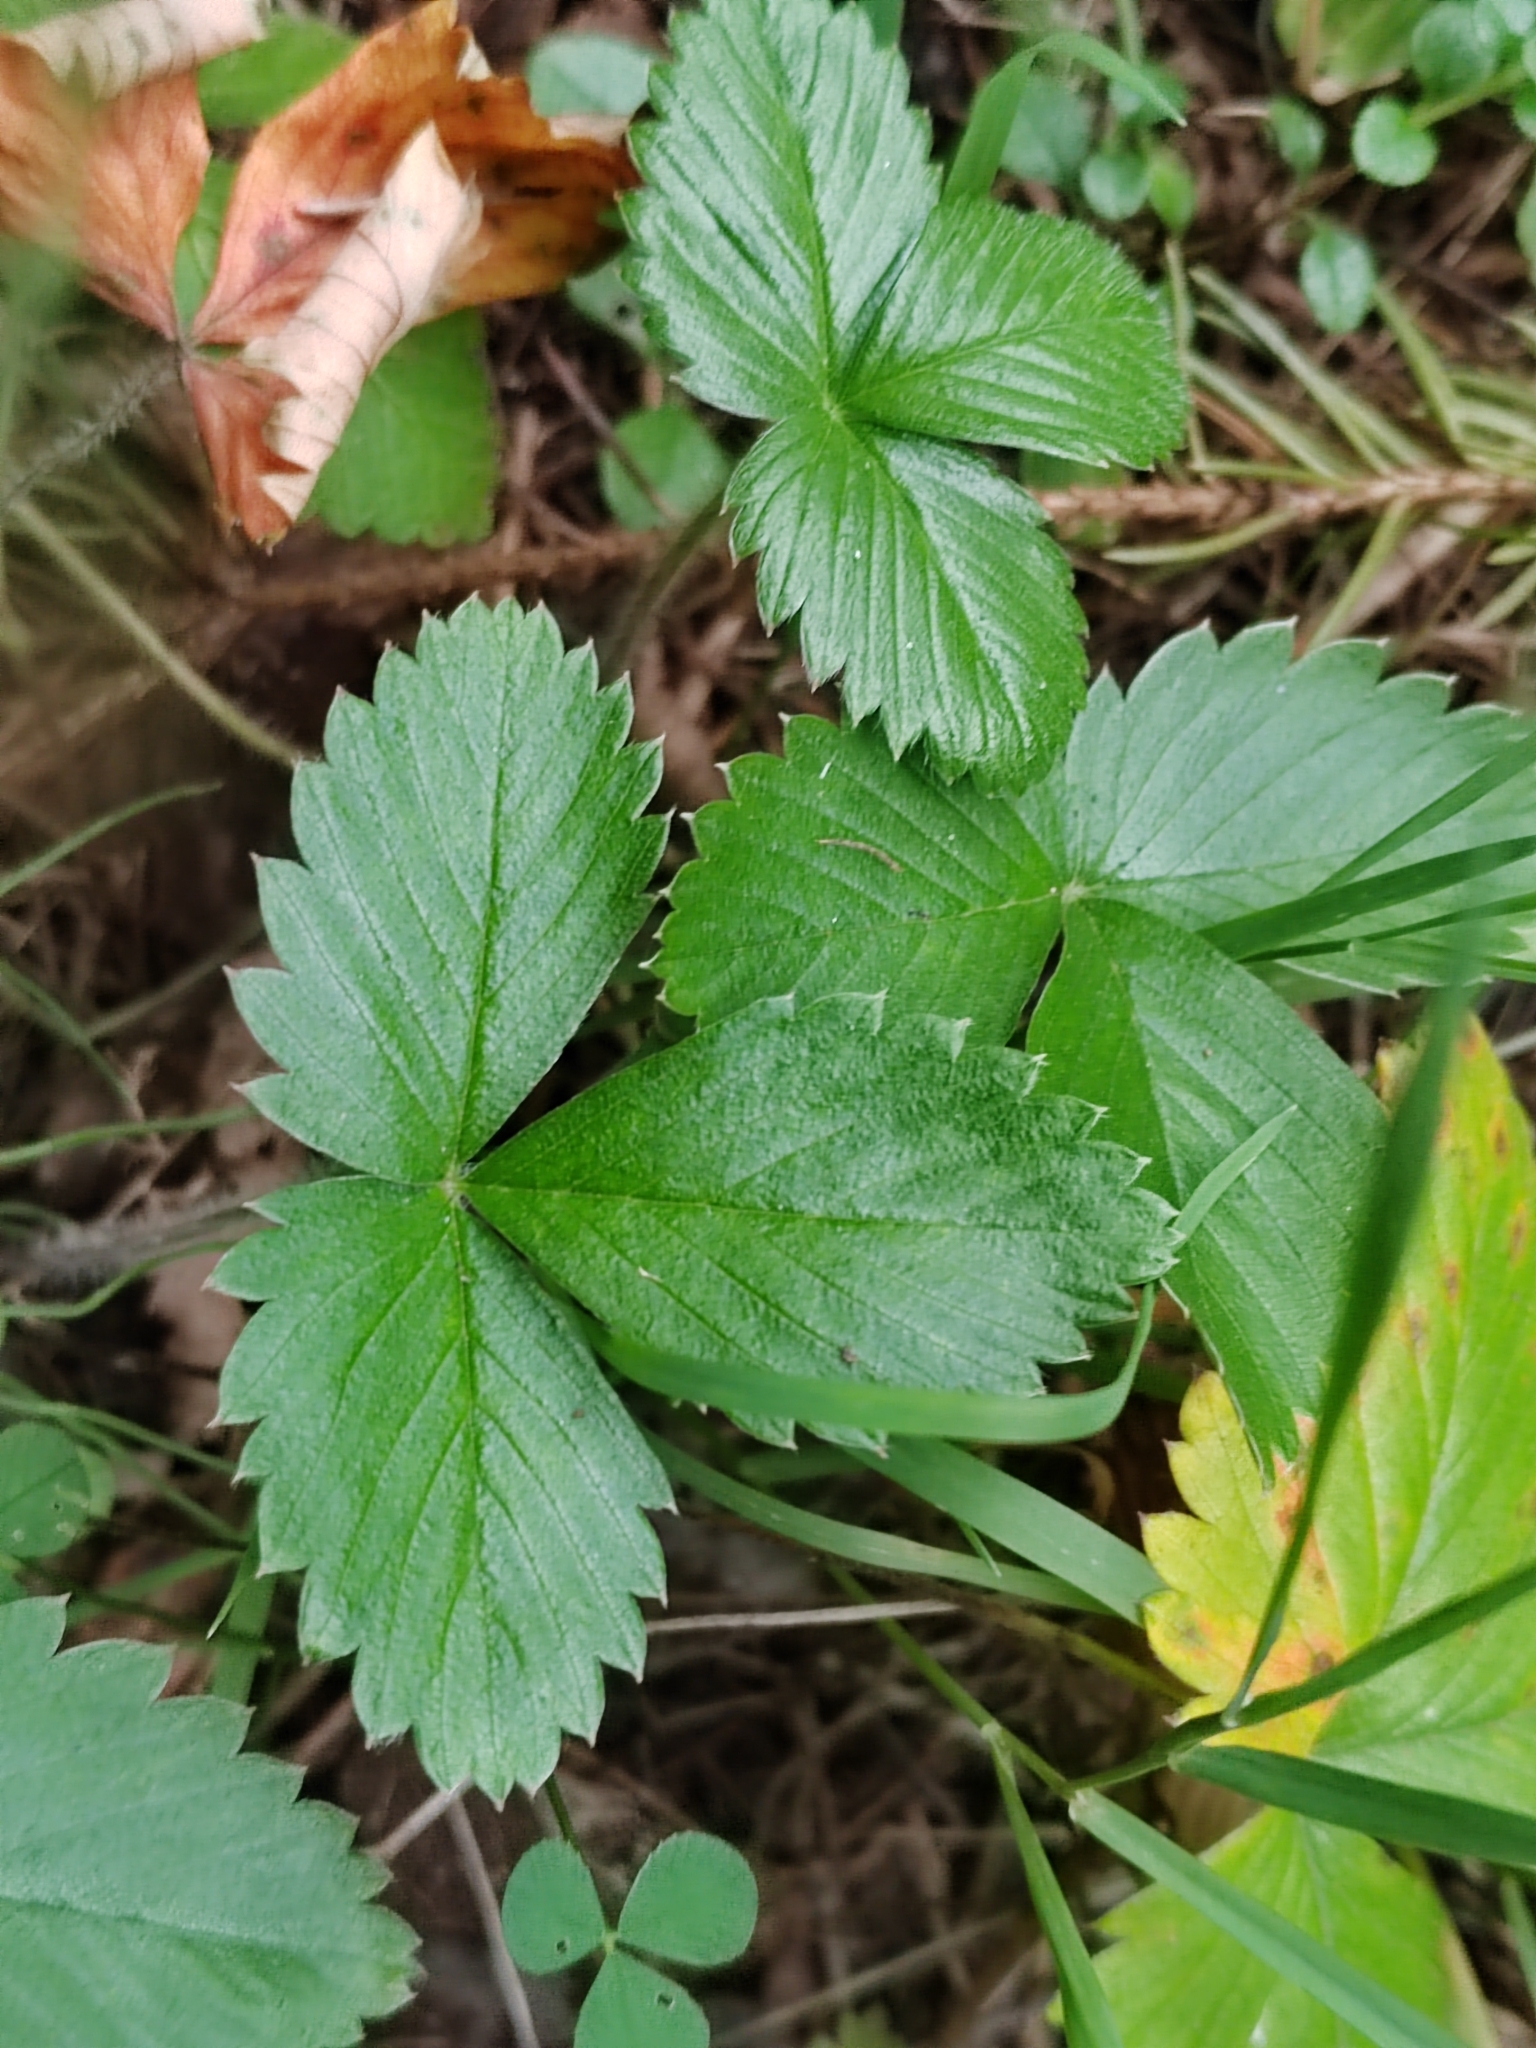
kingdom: Plantae
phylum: Tracheophyta
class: Magnoliopsida
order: Rosales
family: Rosaceae
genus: Fragaria
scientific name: Fragaria vesca
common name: Wild strawberry
